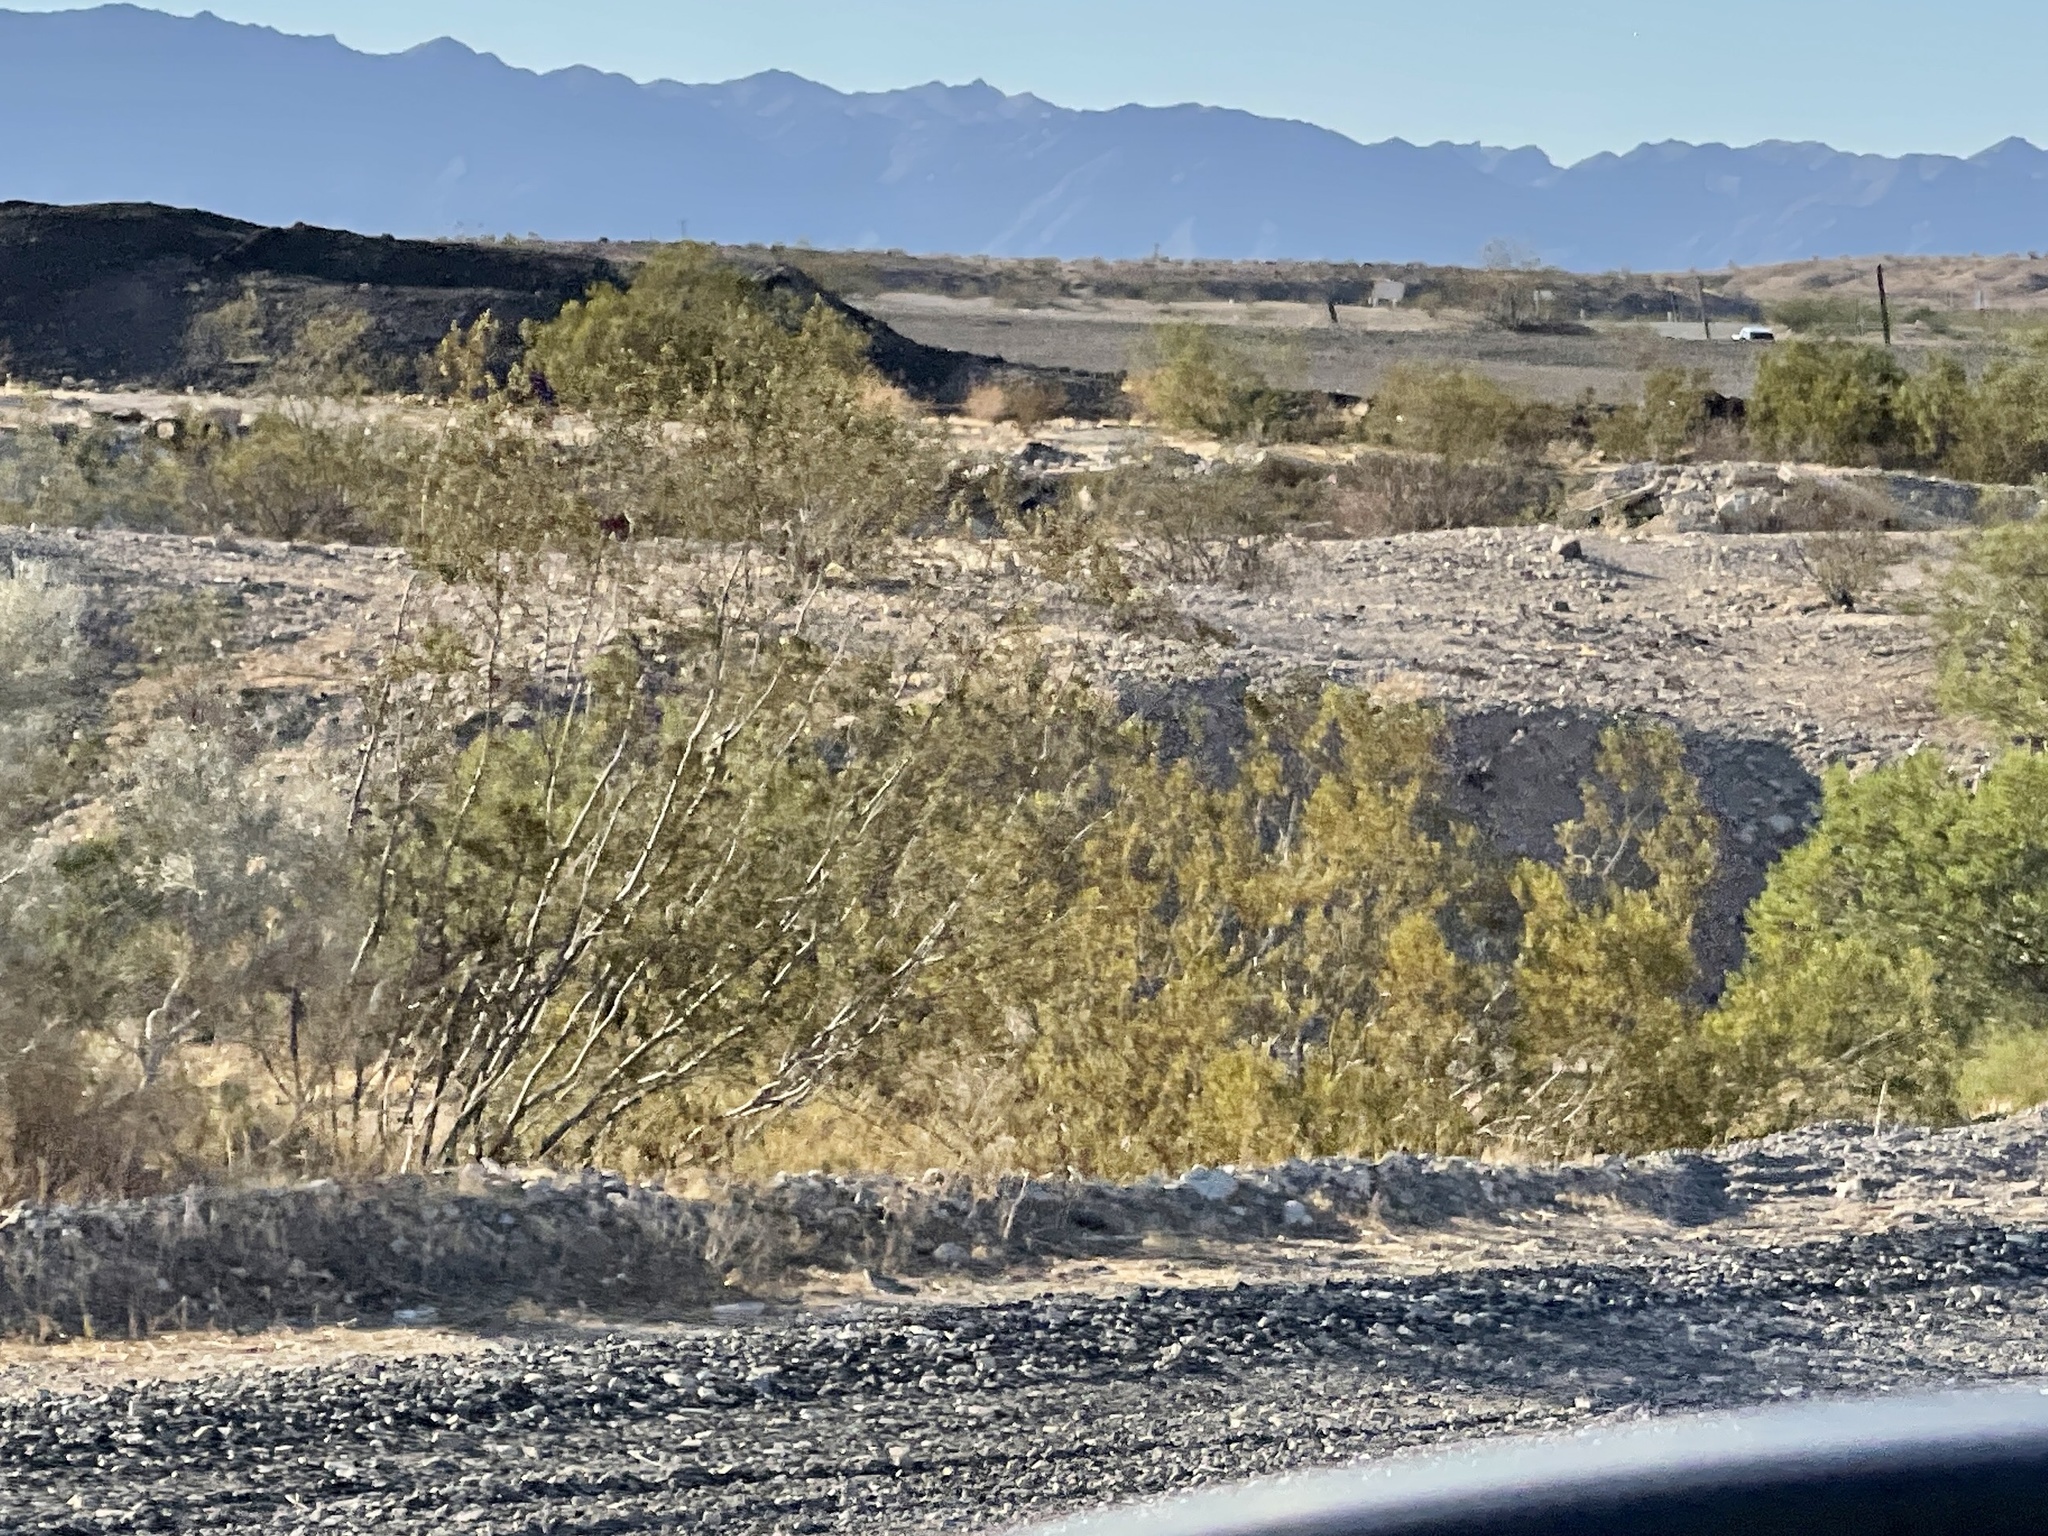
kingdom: Plantae
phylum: Tracheophyta
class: Magnoliopsida
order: Zygophyllales
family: Zygophyllaceae
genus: Larrea
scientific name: Larrea tridentata
